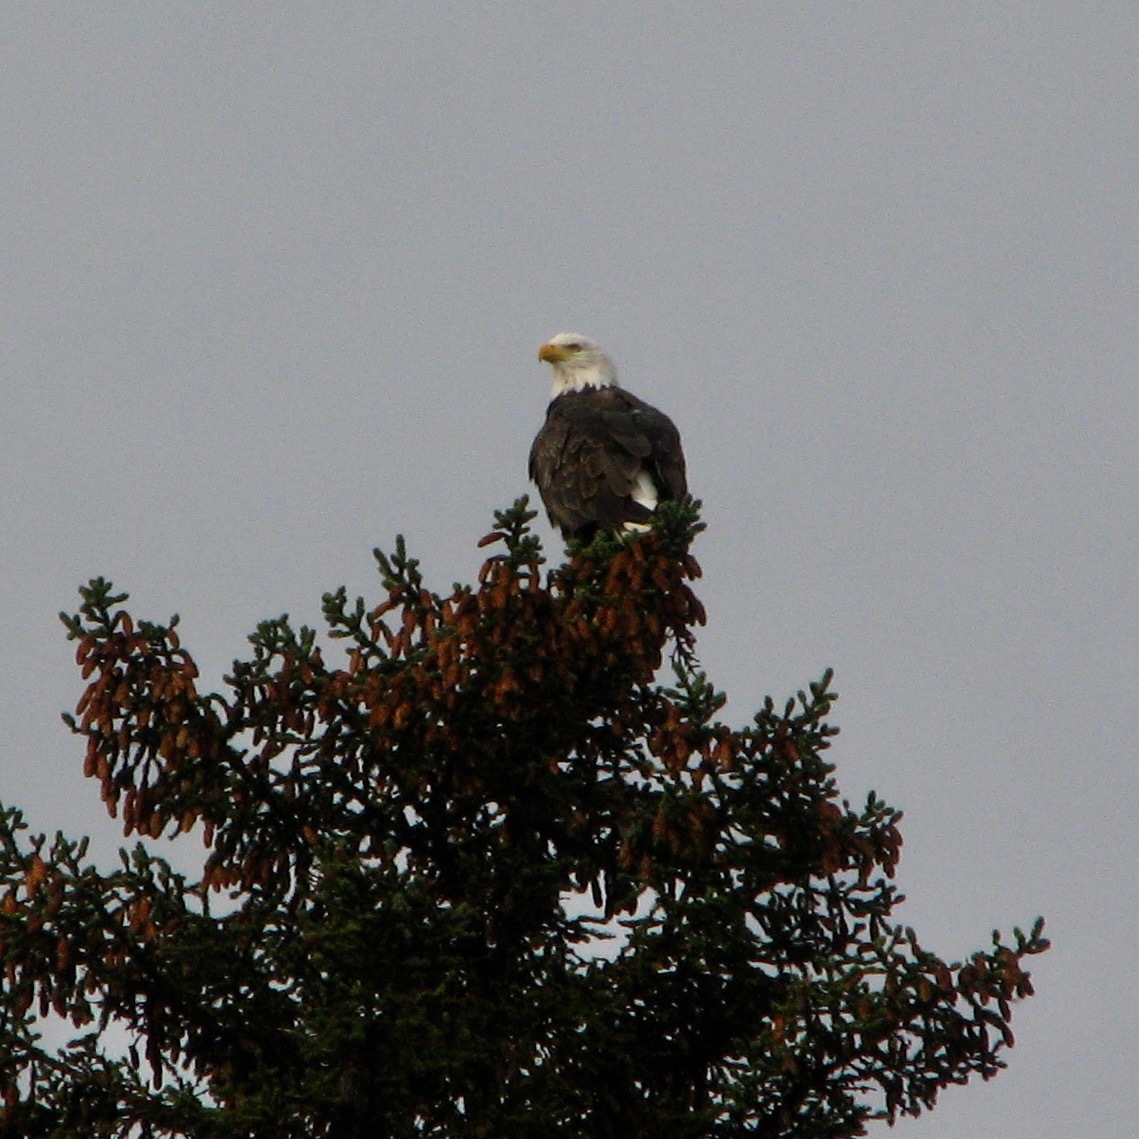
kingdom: Animalia
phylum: Chordata
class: Aves
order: Accipitriformes
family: Accipitridae
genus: Haliaeetus
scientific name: Haliaeetus leucocephalus
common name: Bald eagle
